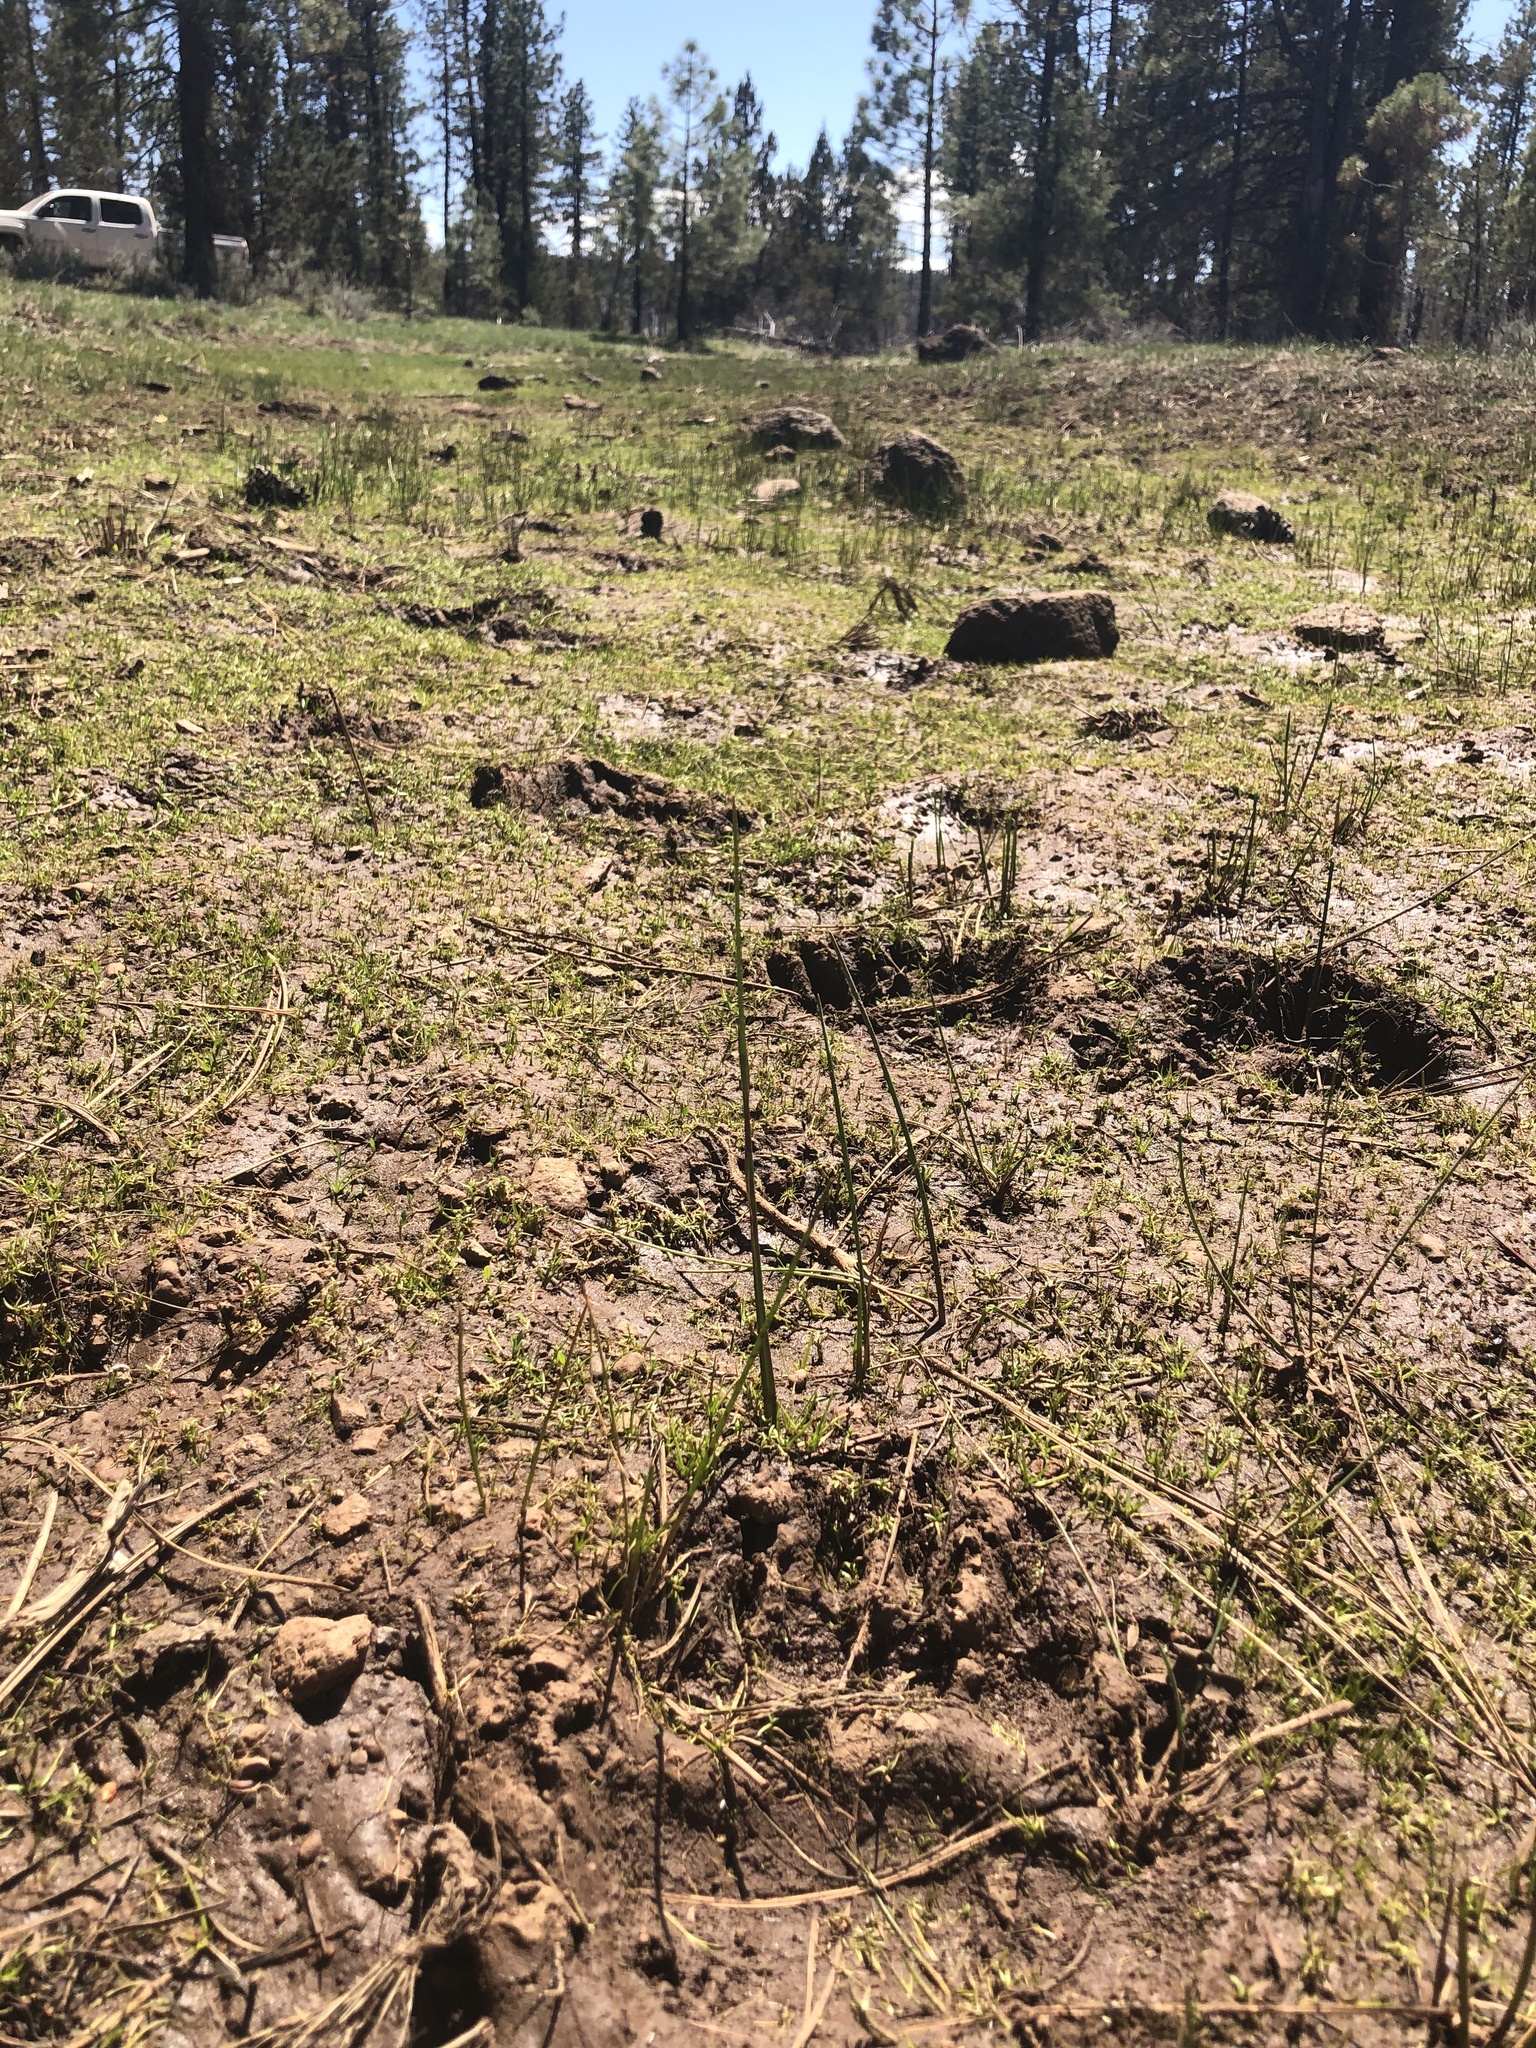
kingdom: Animalia
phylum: Chordata
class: Mammalia
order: Carnivora
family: Ursidae
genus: Ursus
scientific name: Ursus americanus
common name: American black bear
